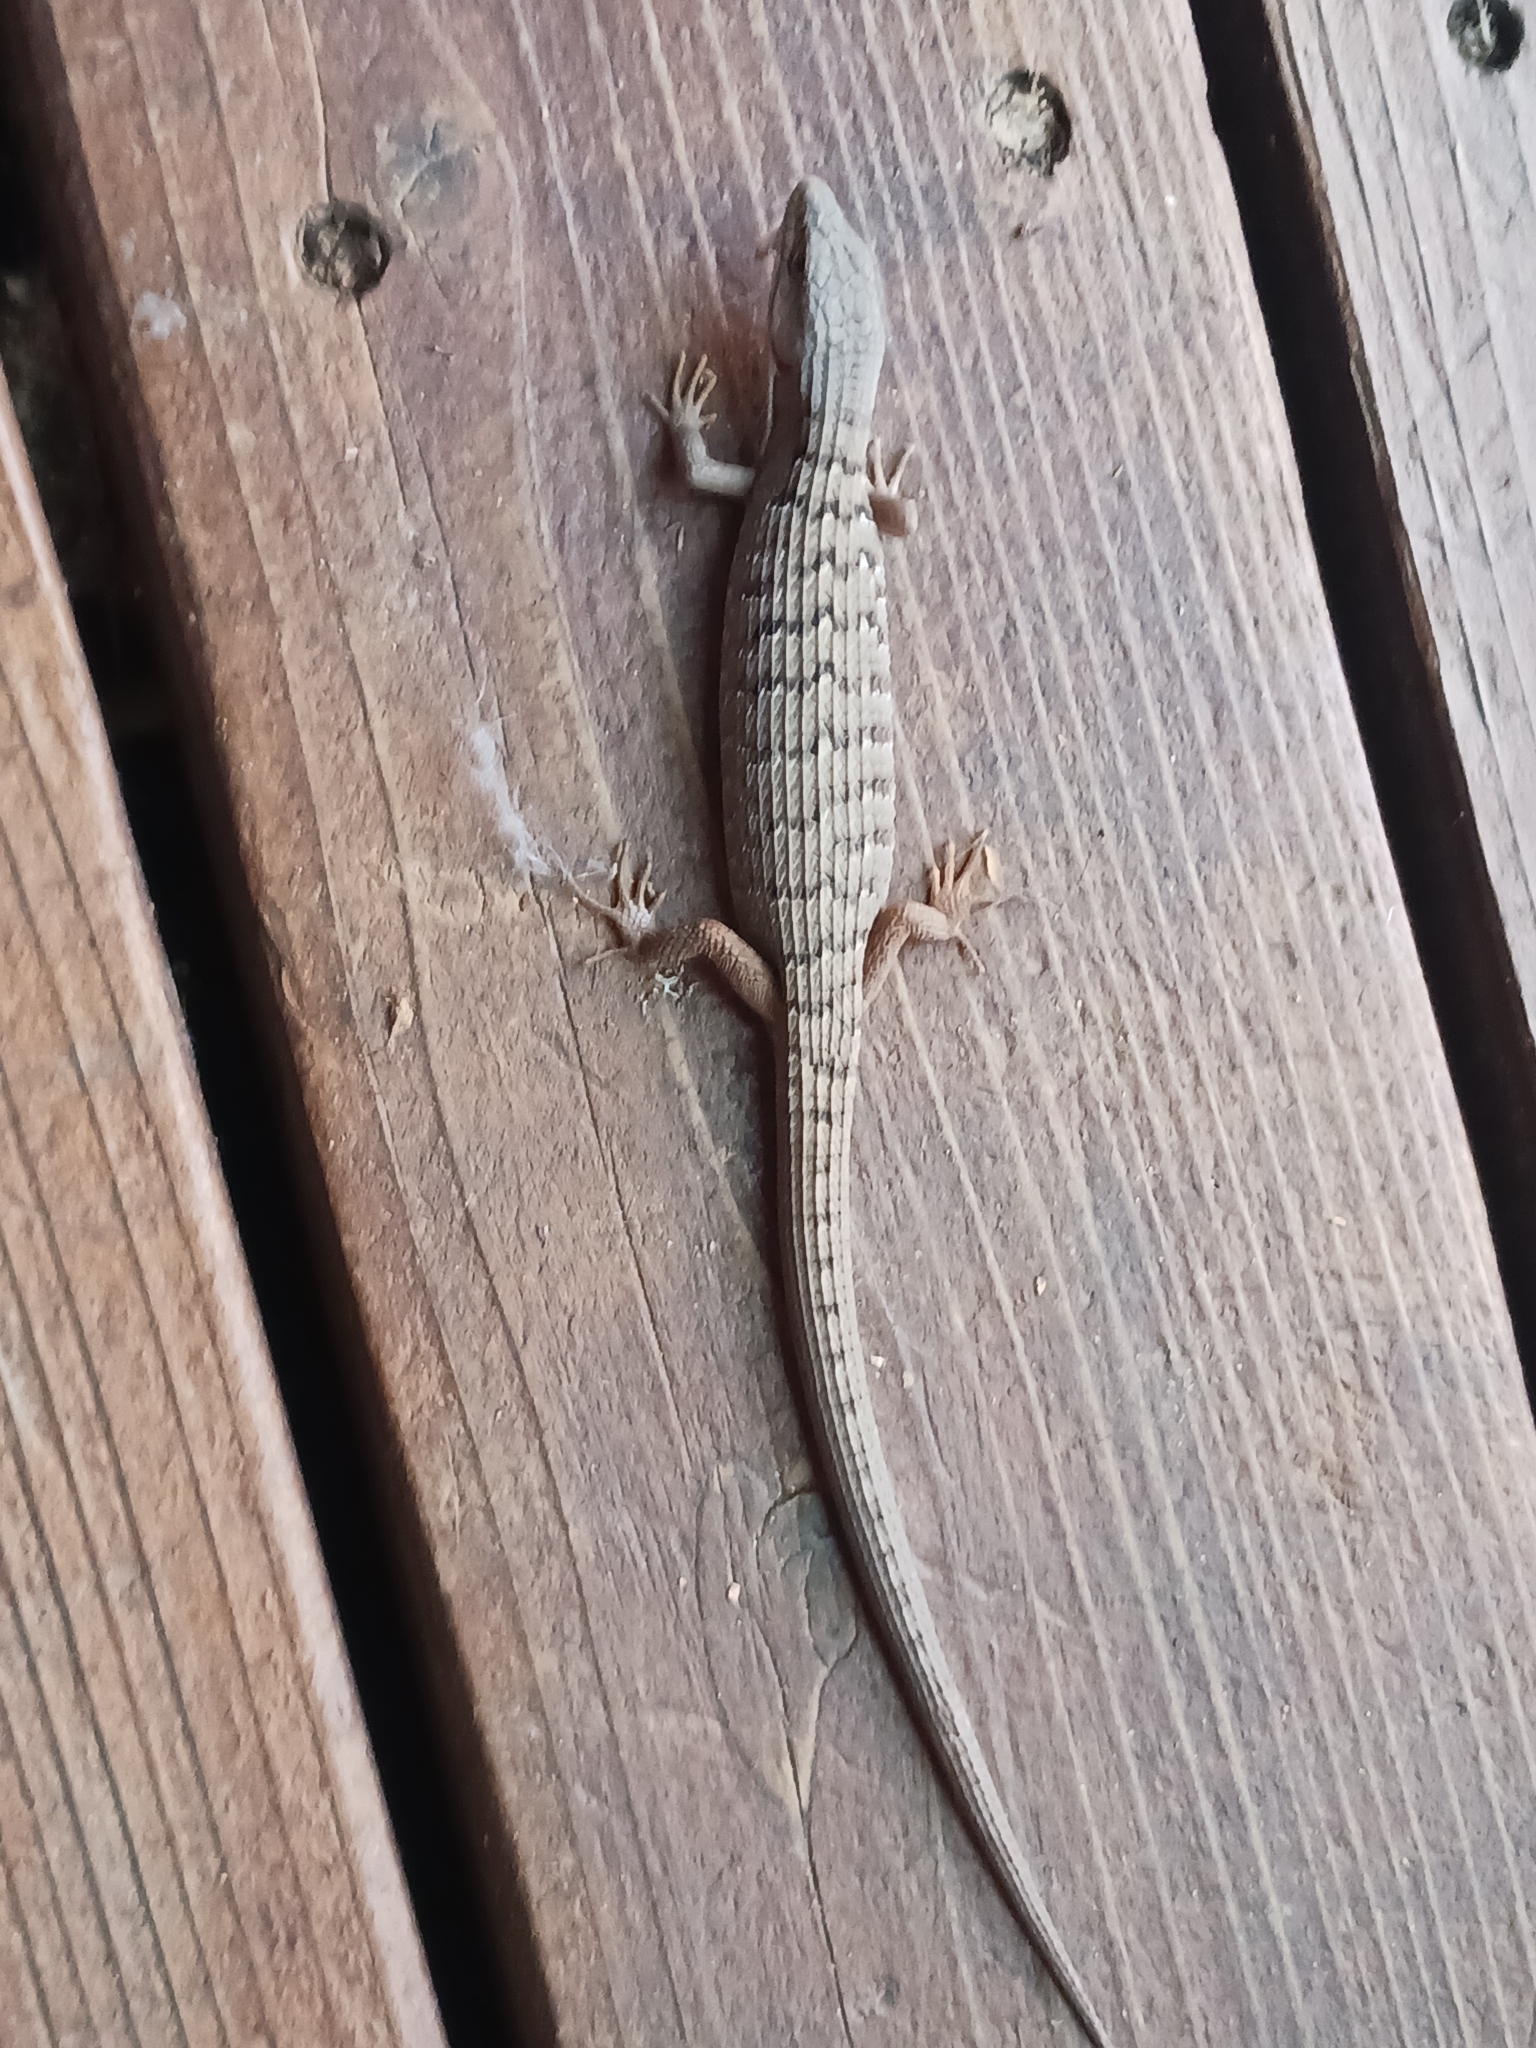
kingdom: Animalia
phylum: Chordata
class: Squamata
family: Anguidae
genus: Elgaria
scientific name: Elgaria multicarinata
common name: Southern alligator lizard
